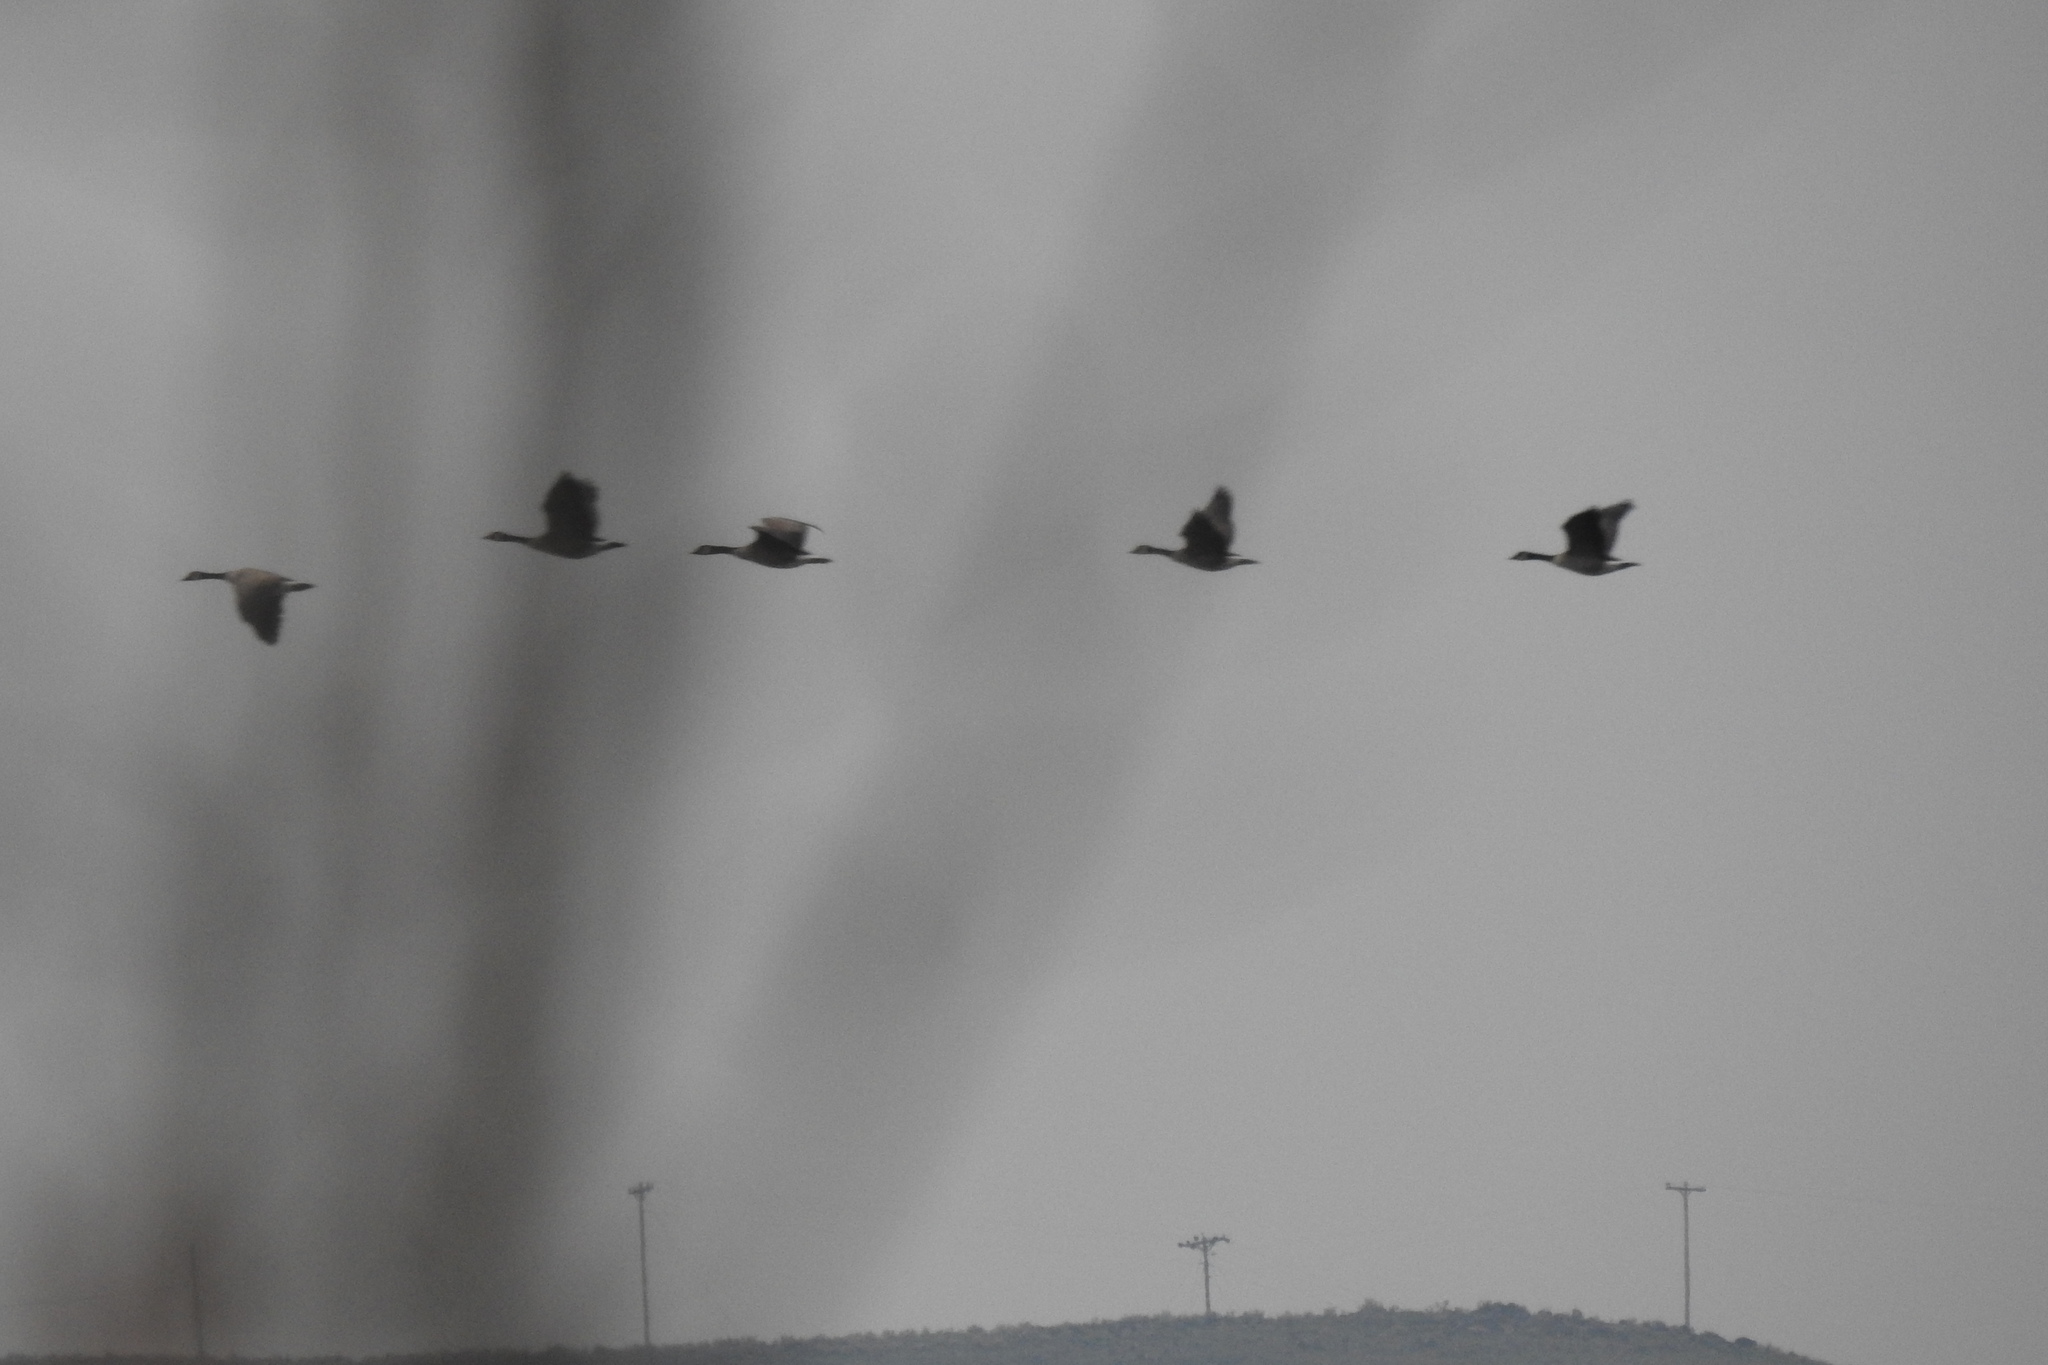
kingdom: Animalia
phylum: Chordata
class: Aves
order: Anseriformes
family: Anatidae
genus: Branta
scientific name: Branta canadensis
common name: Canada goose
